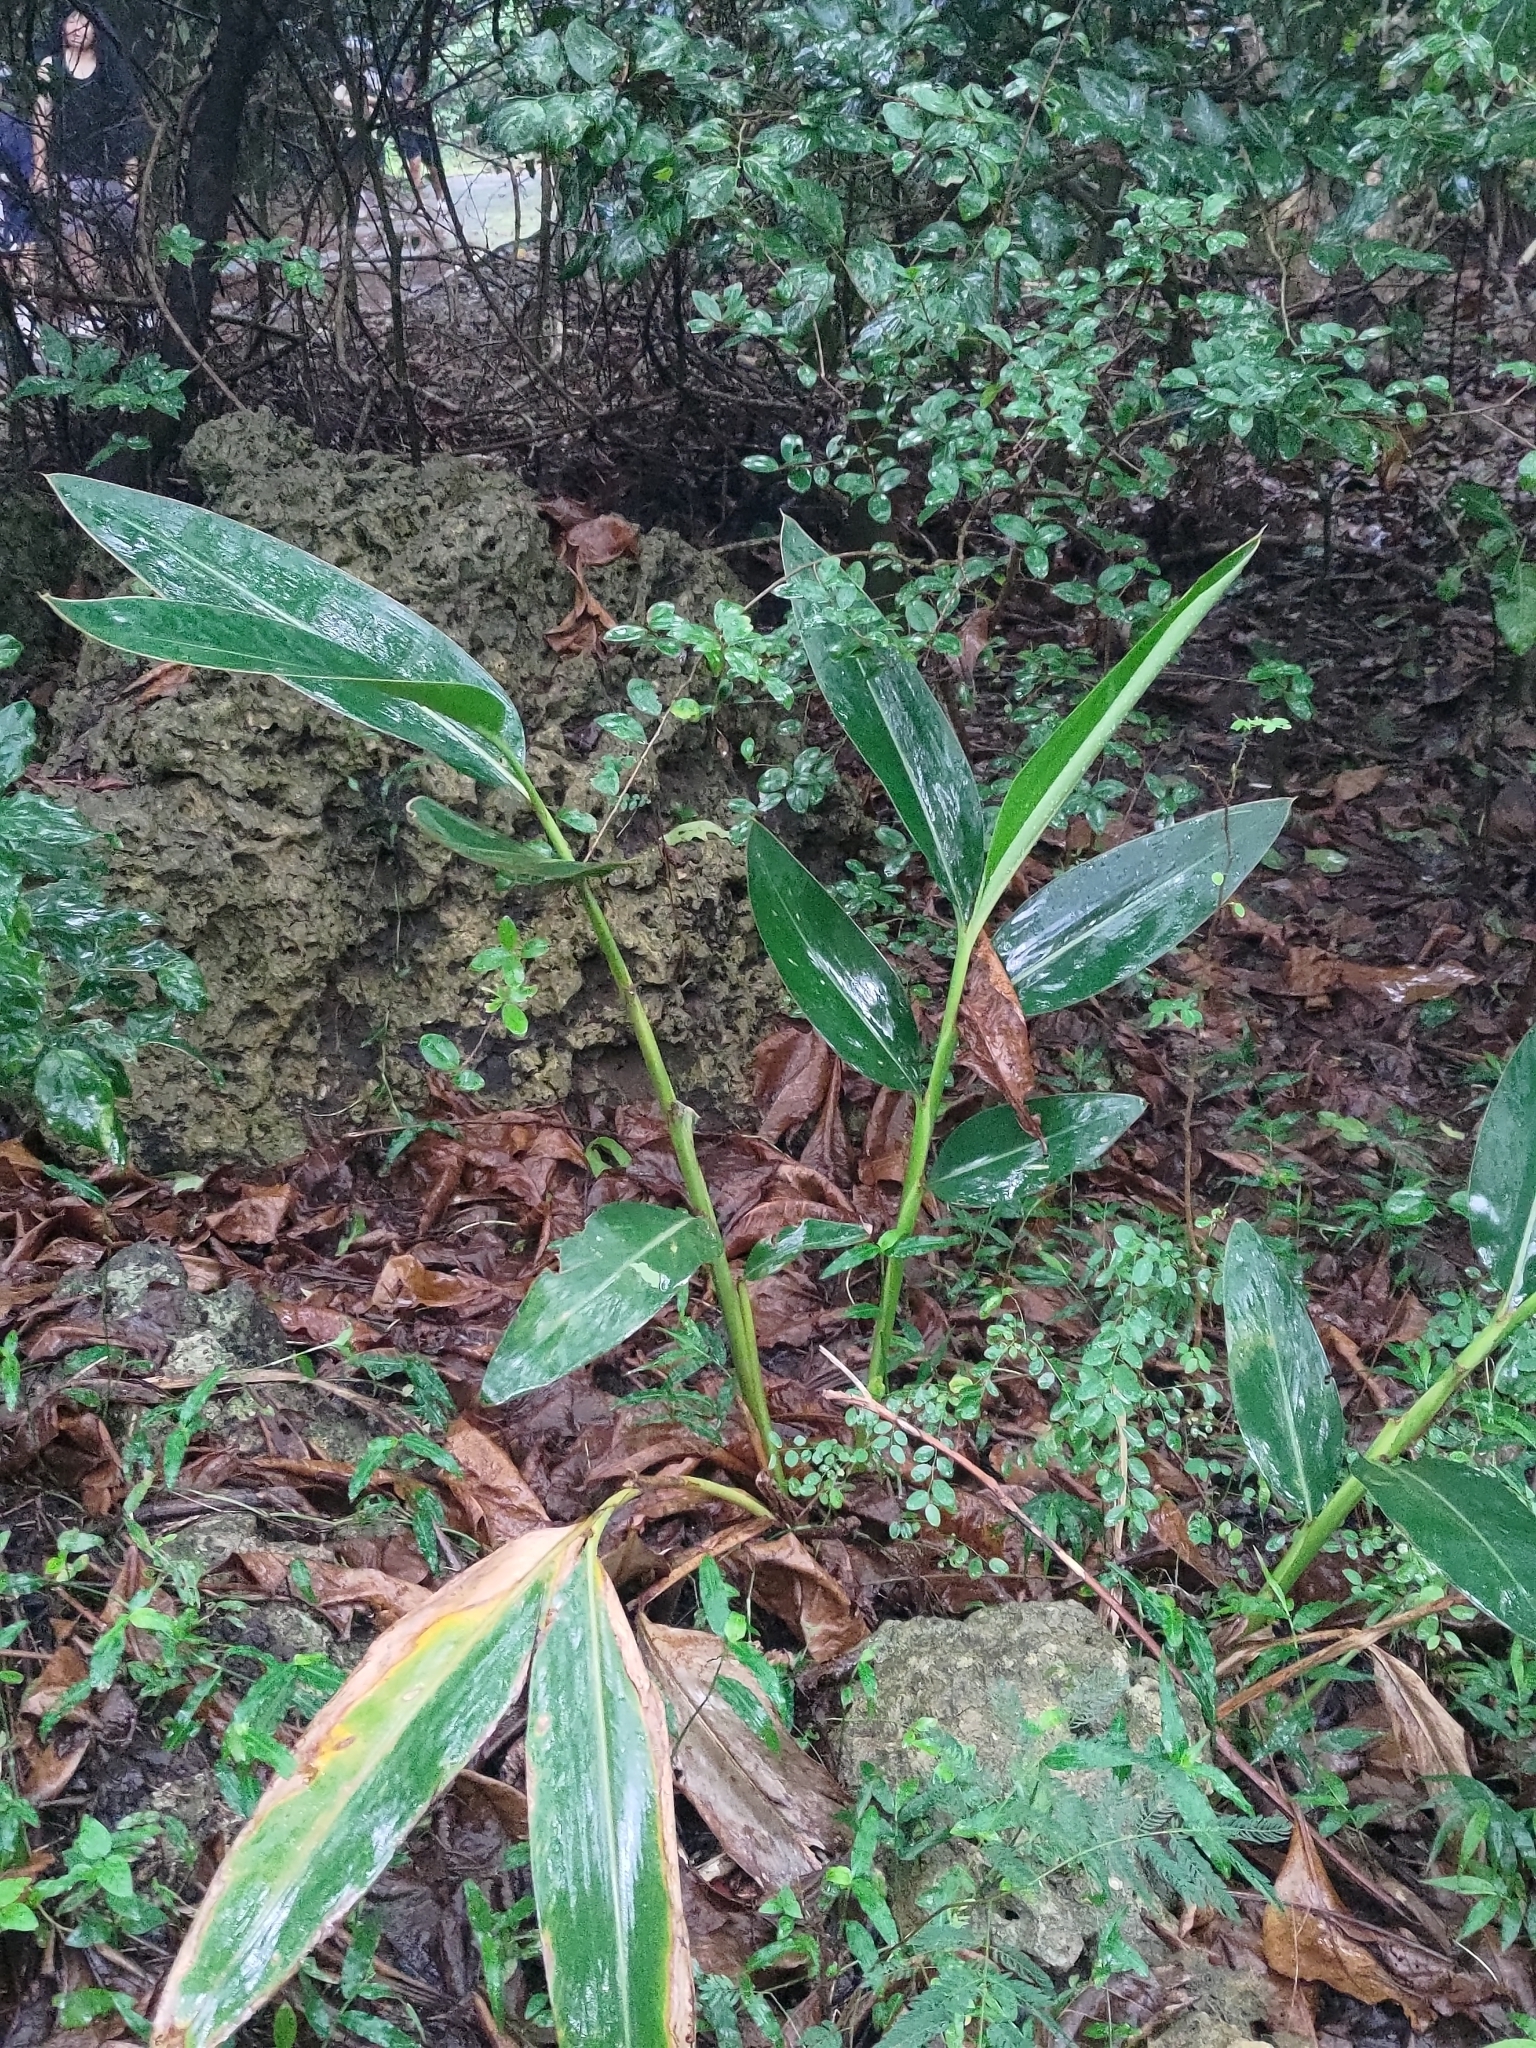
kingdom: Plantae
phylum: Tracheophyta
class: Liliopsida
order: Zingiberales
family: Zingiberaceae
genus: Alpinia
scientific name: Alpinia zerumbet
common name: Shellplant
